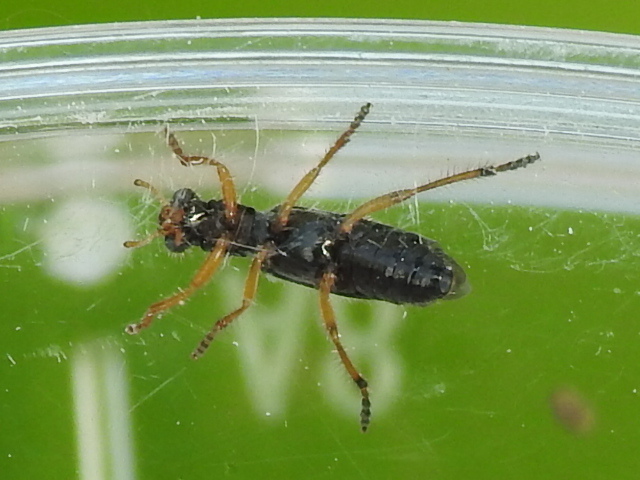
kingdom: Animalia
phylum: Arthropoda
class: Insecta
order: Coleoptera
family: Cleridae
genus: Wolcottia
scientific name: Wolcottia pedalis
